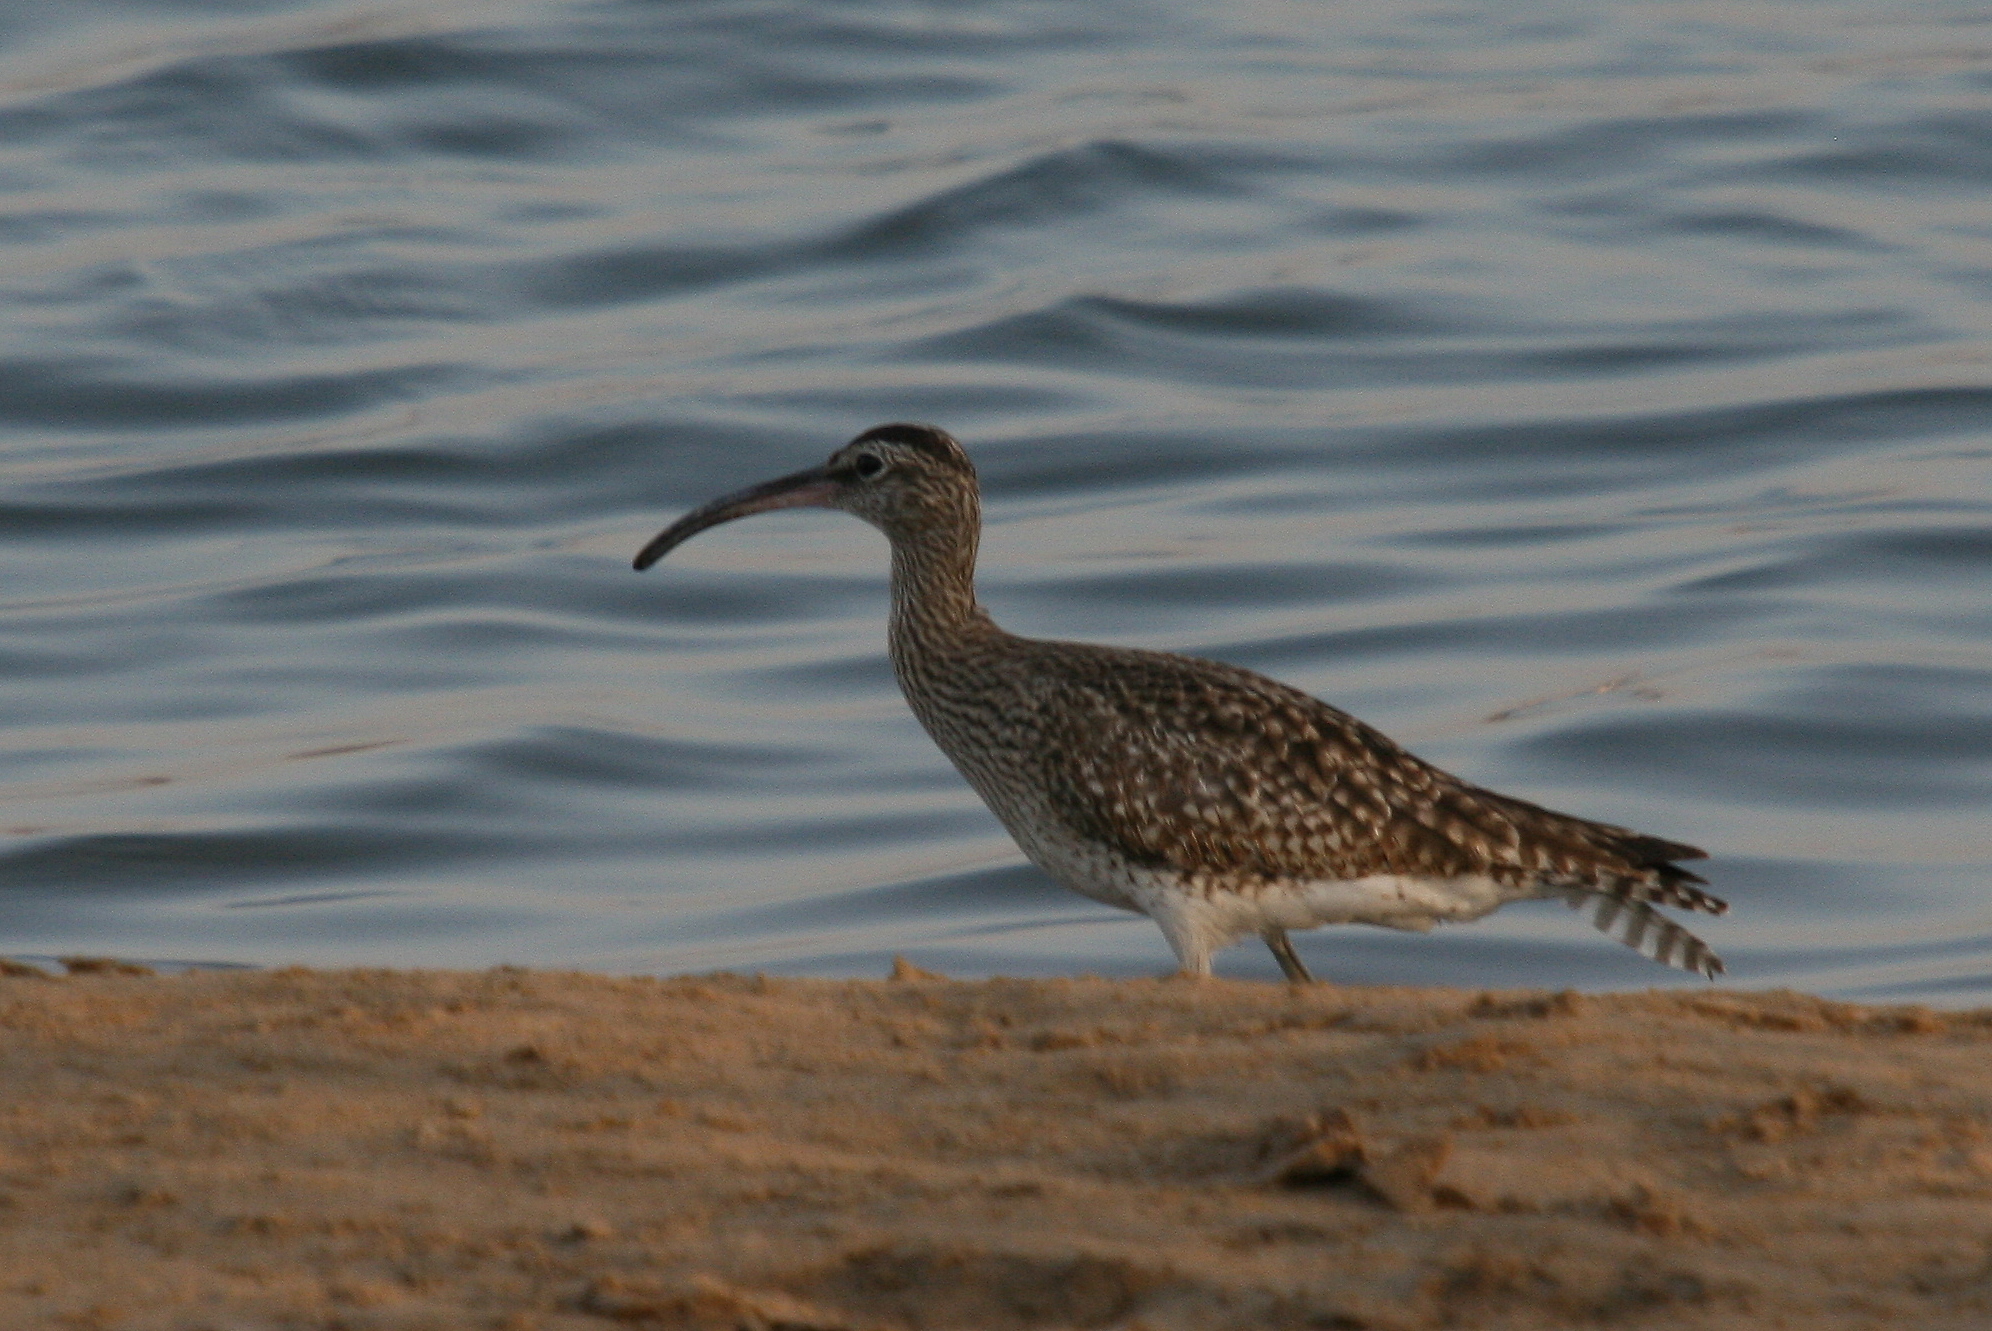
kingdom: Animalia
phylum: Chordata
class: Aves
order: Charadriiformes
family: Scolopacidae
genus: Numenius
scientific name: Numenius phaeopus
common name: Whimbrel
